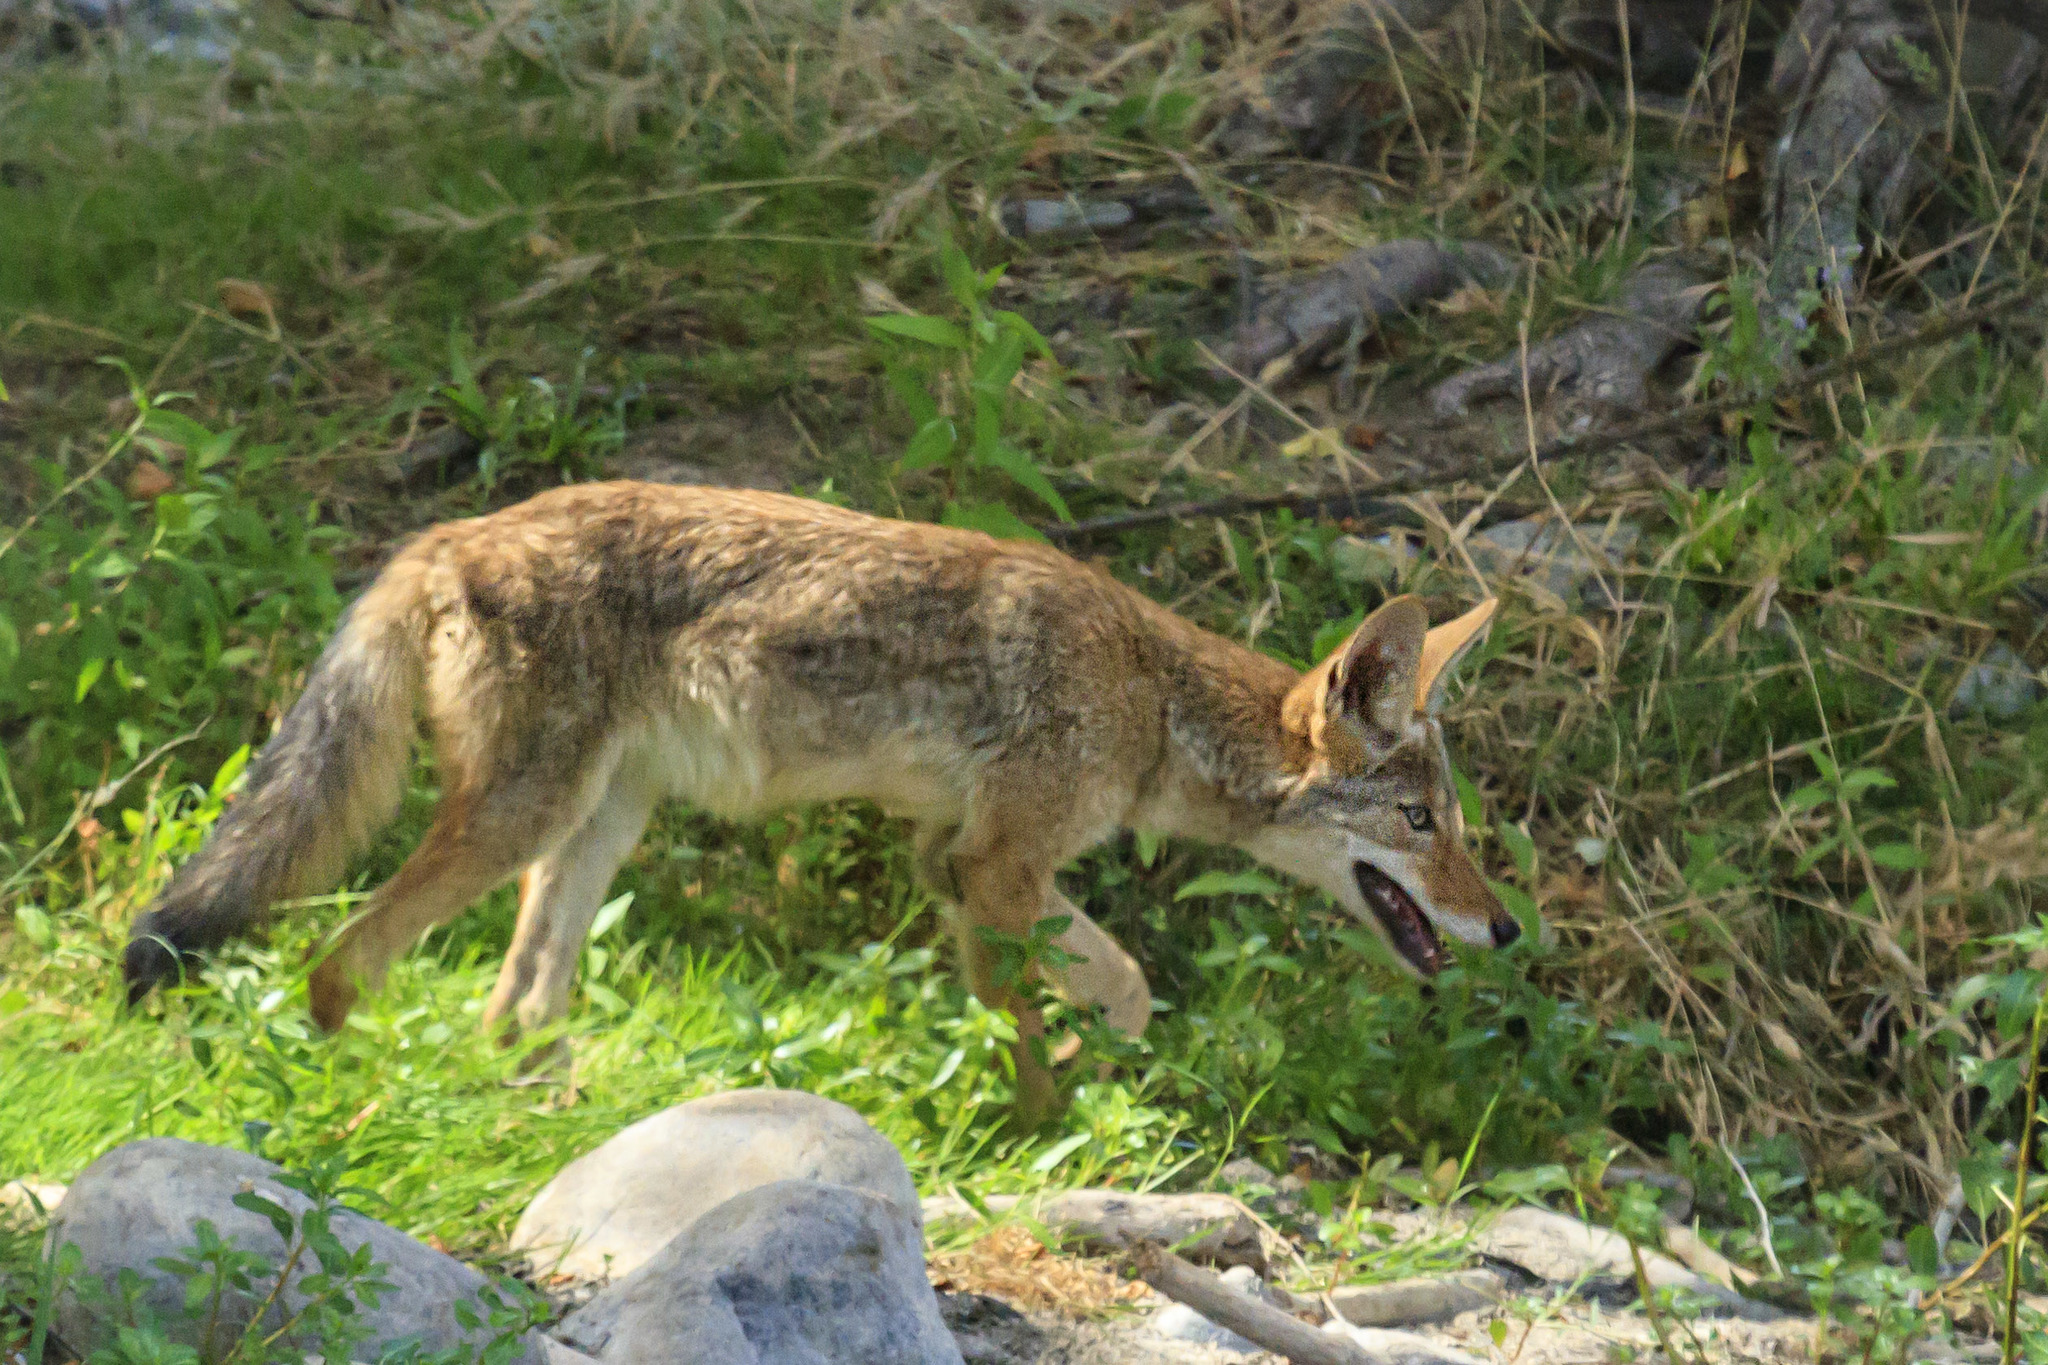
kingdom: Animalia
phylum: Chordata
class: Mammalia
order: Carnivora
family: Canidae
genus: Canis
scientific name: Canis latrans
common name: Coyote
